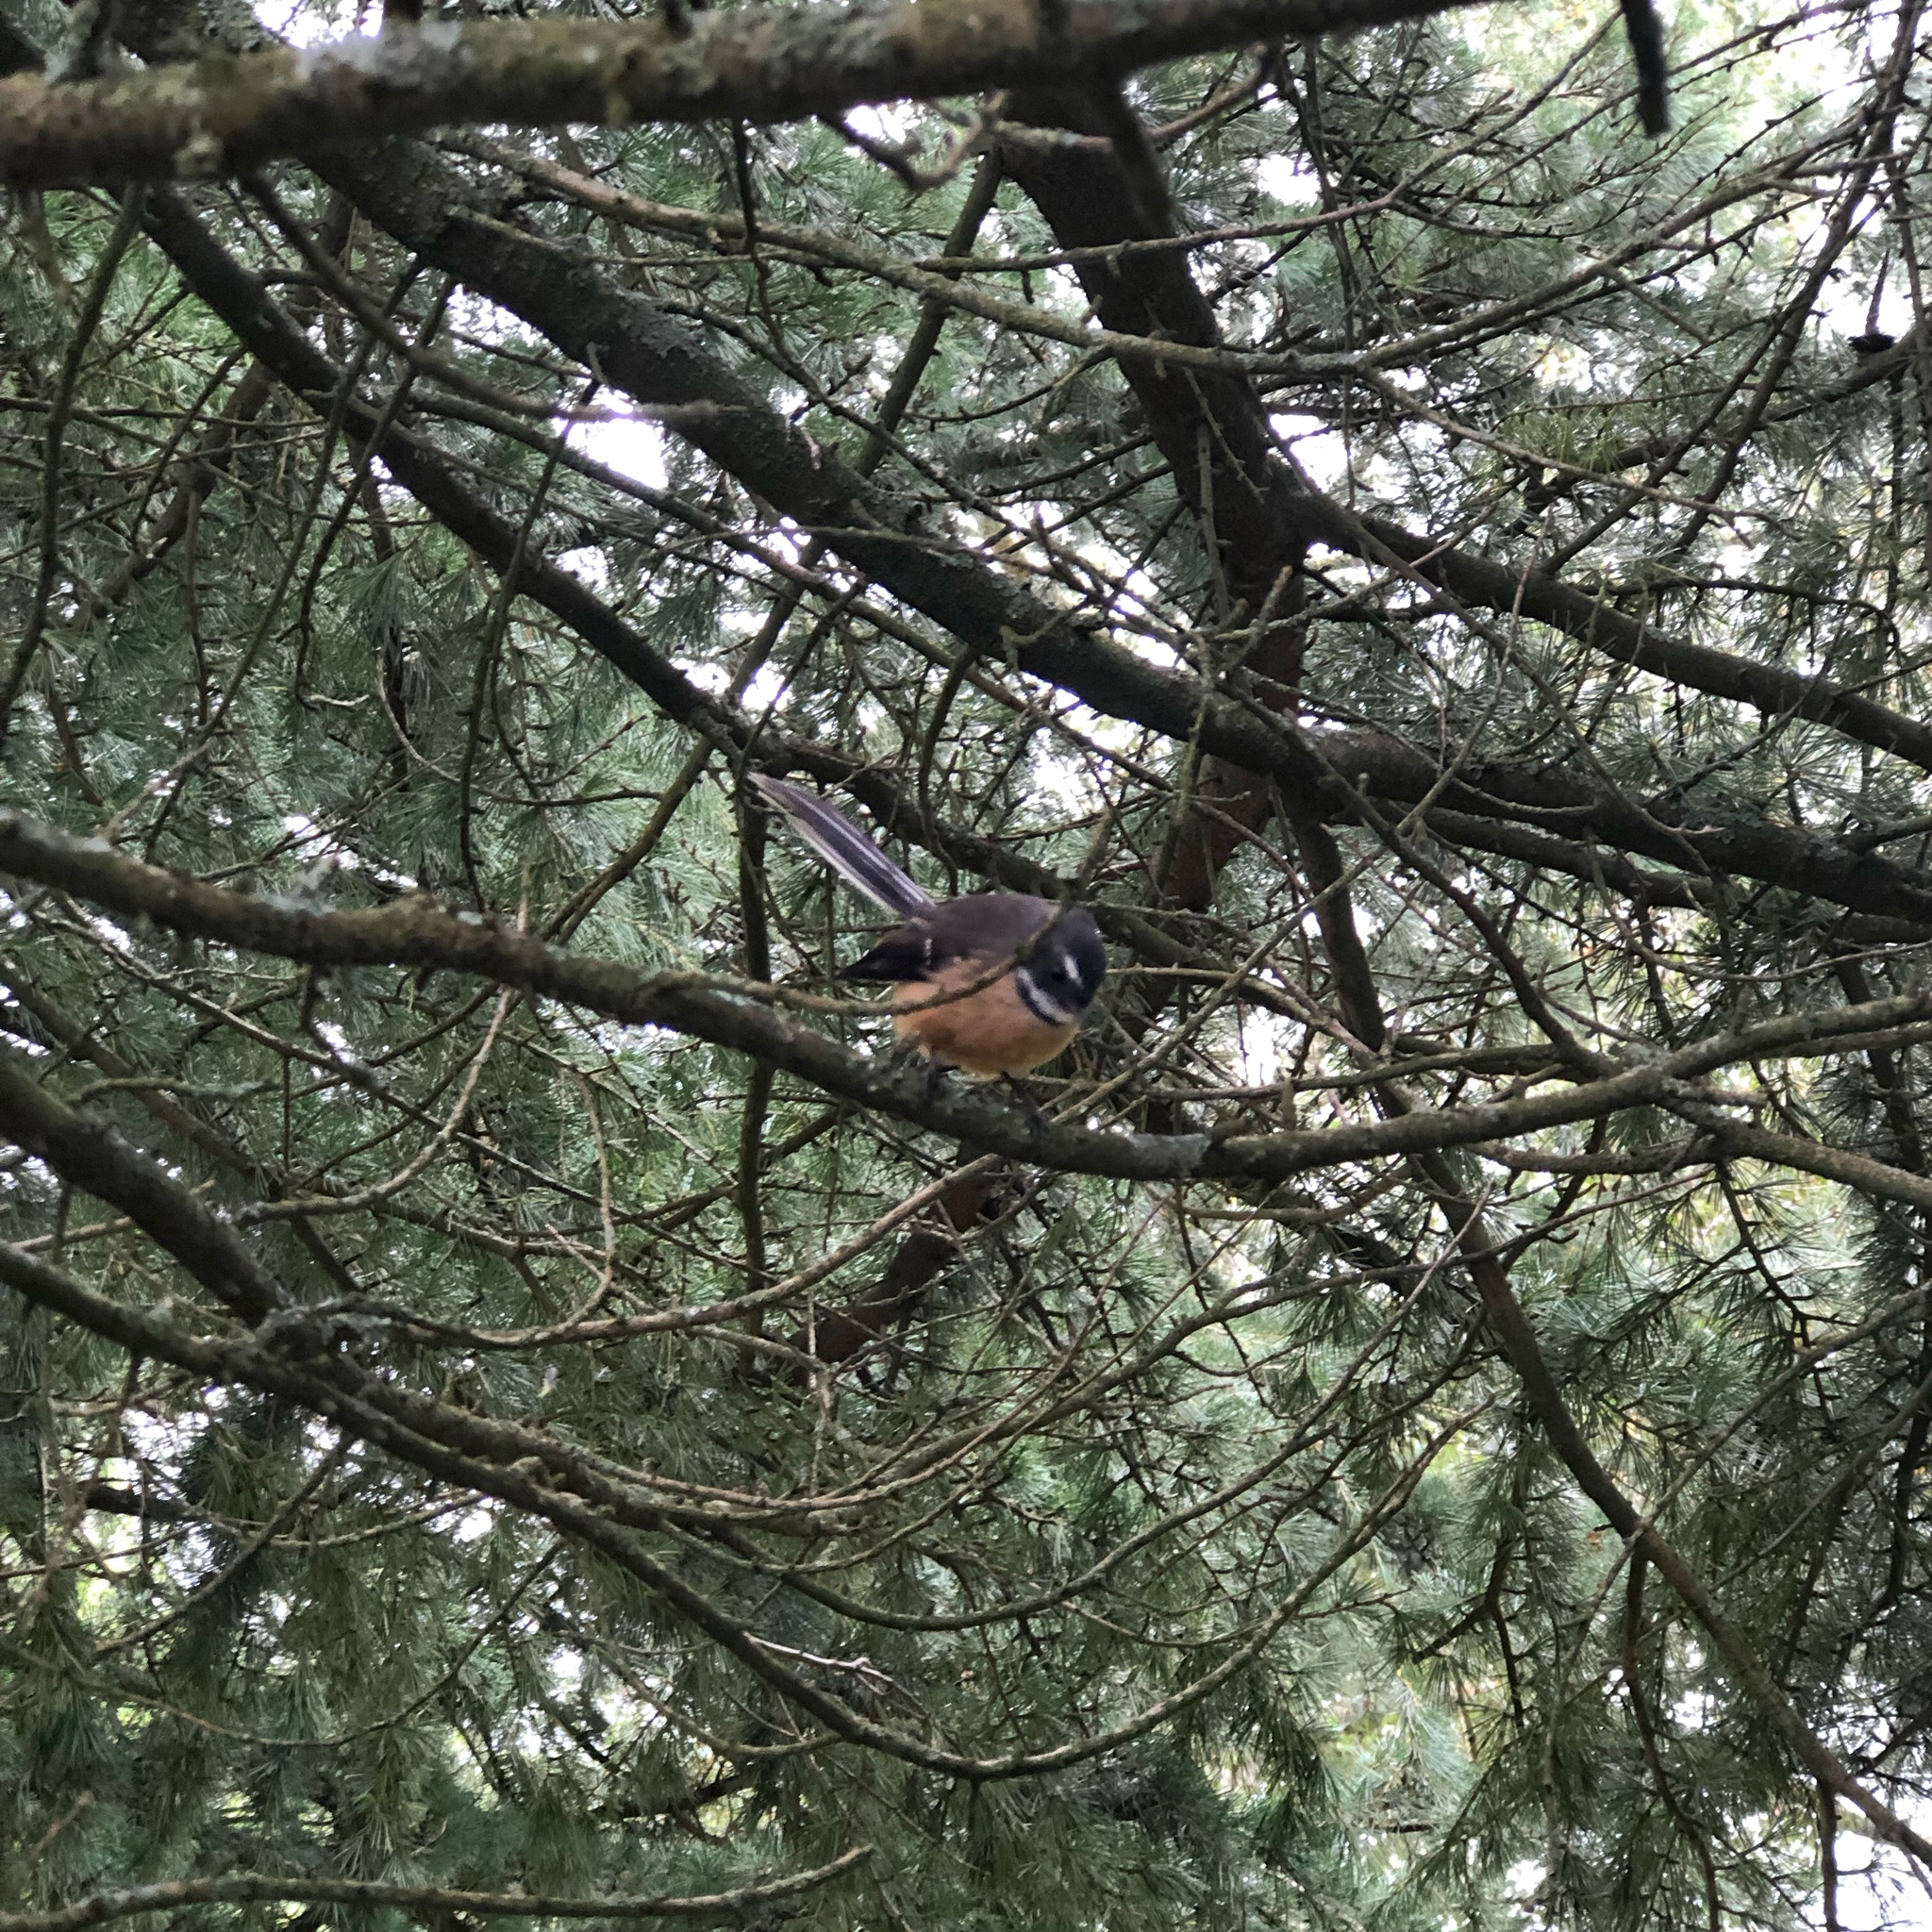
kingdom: Animalia
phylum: Chordata
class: Aves
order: Passeriformes
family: Rhipiduridae
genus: Rhipidura
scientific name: Rhipidura fuliginosa
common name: New zealand fantail
